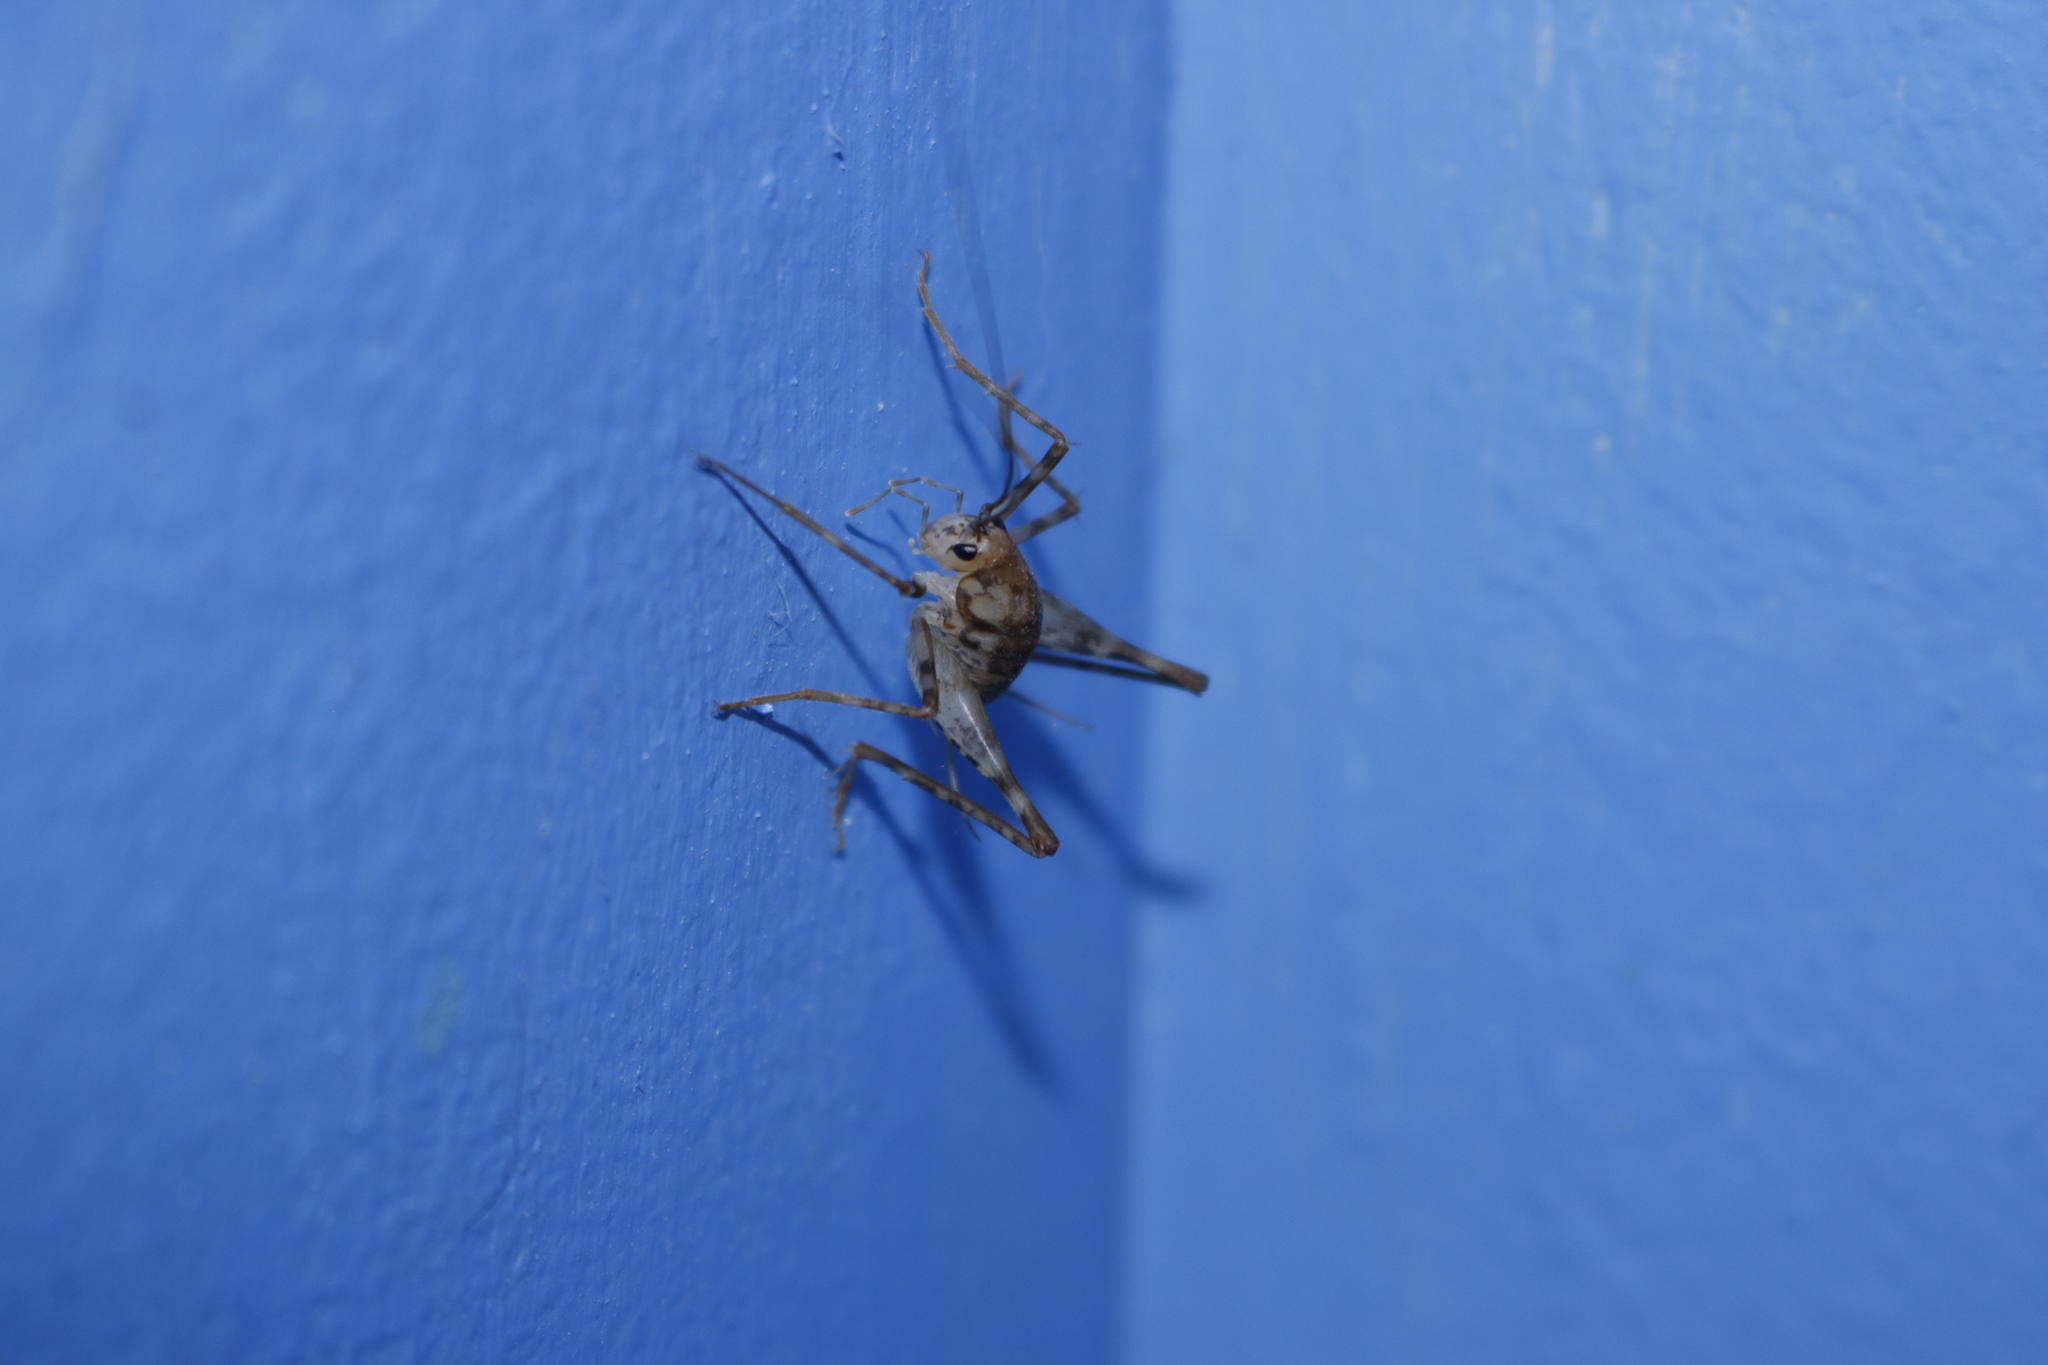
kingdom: Animalia
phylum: Arthropoda
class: Insecta
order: Orthoptera
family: Rhaphidophoridae
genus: Tachycines
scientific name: Tachycines asynamorus
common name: Greenhouse camel cricket
